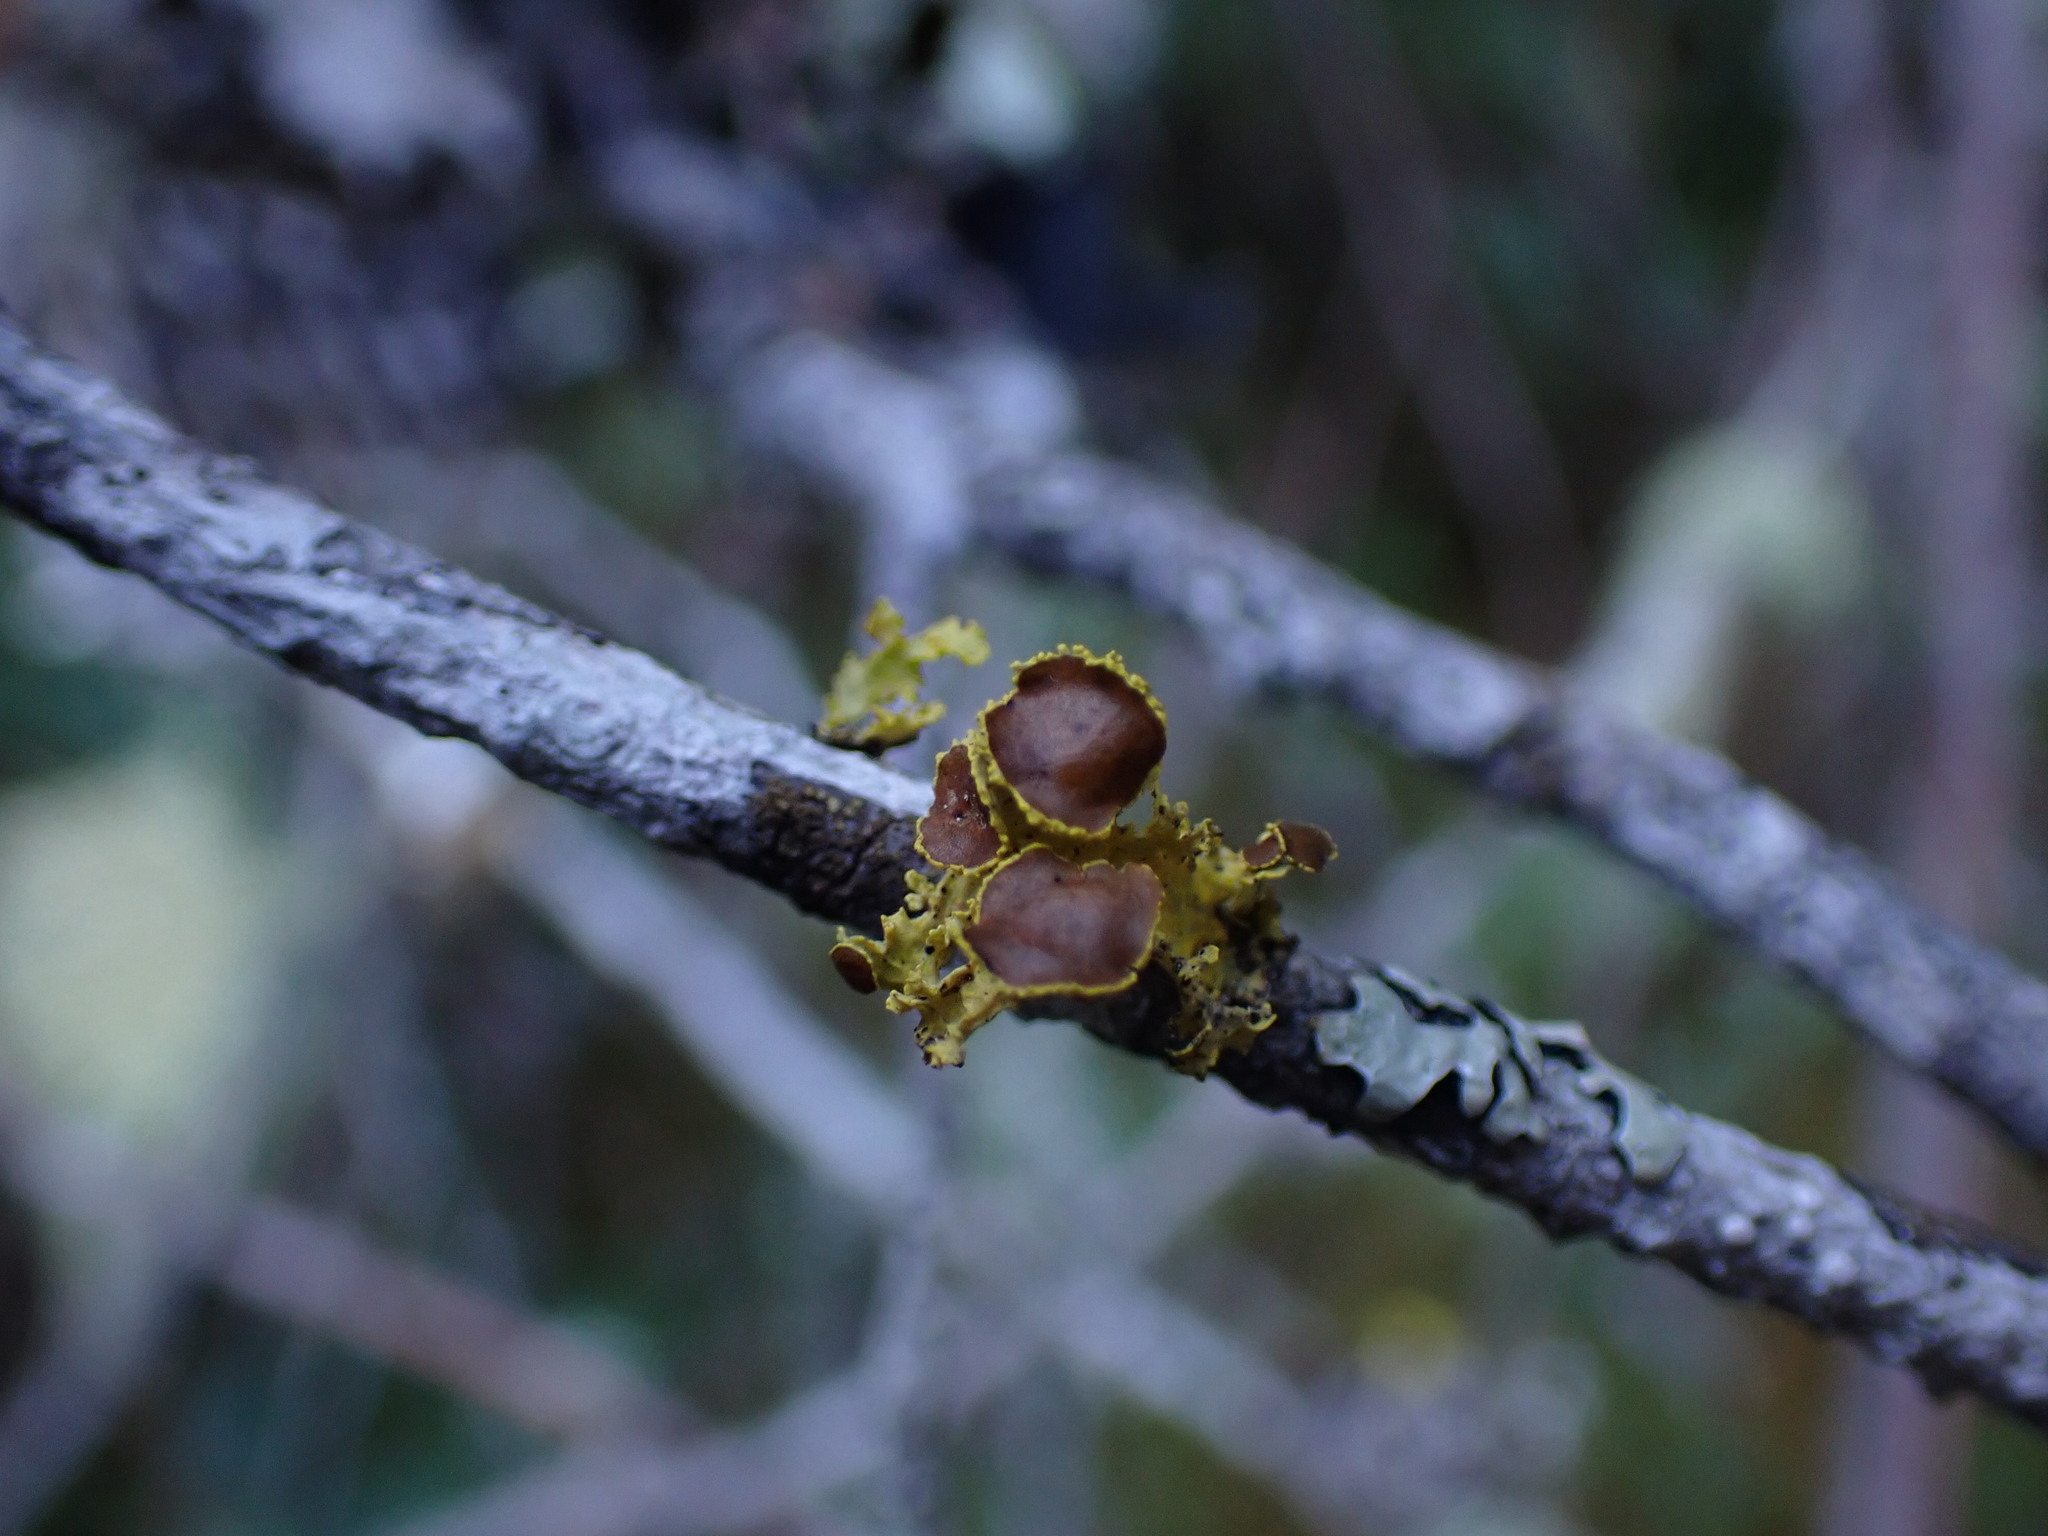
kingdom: Fungi
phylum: Ascomycota
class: Lecanoromycetes
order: Lecanorales
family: Parmeliaceae
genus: Vulpicida
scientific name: Vulpicida canadensis
